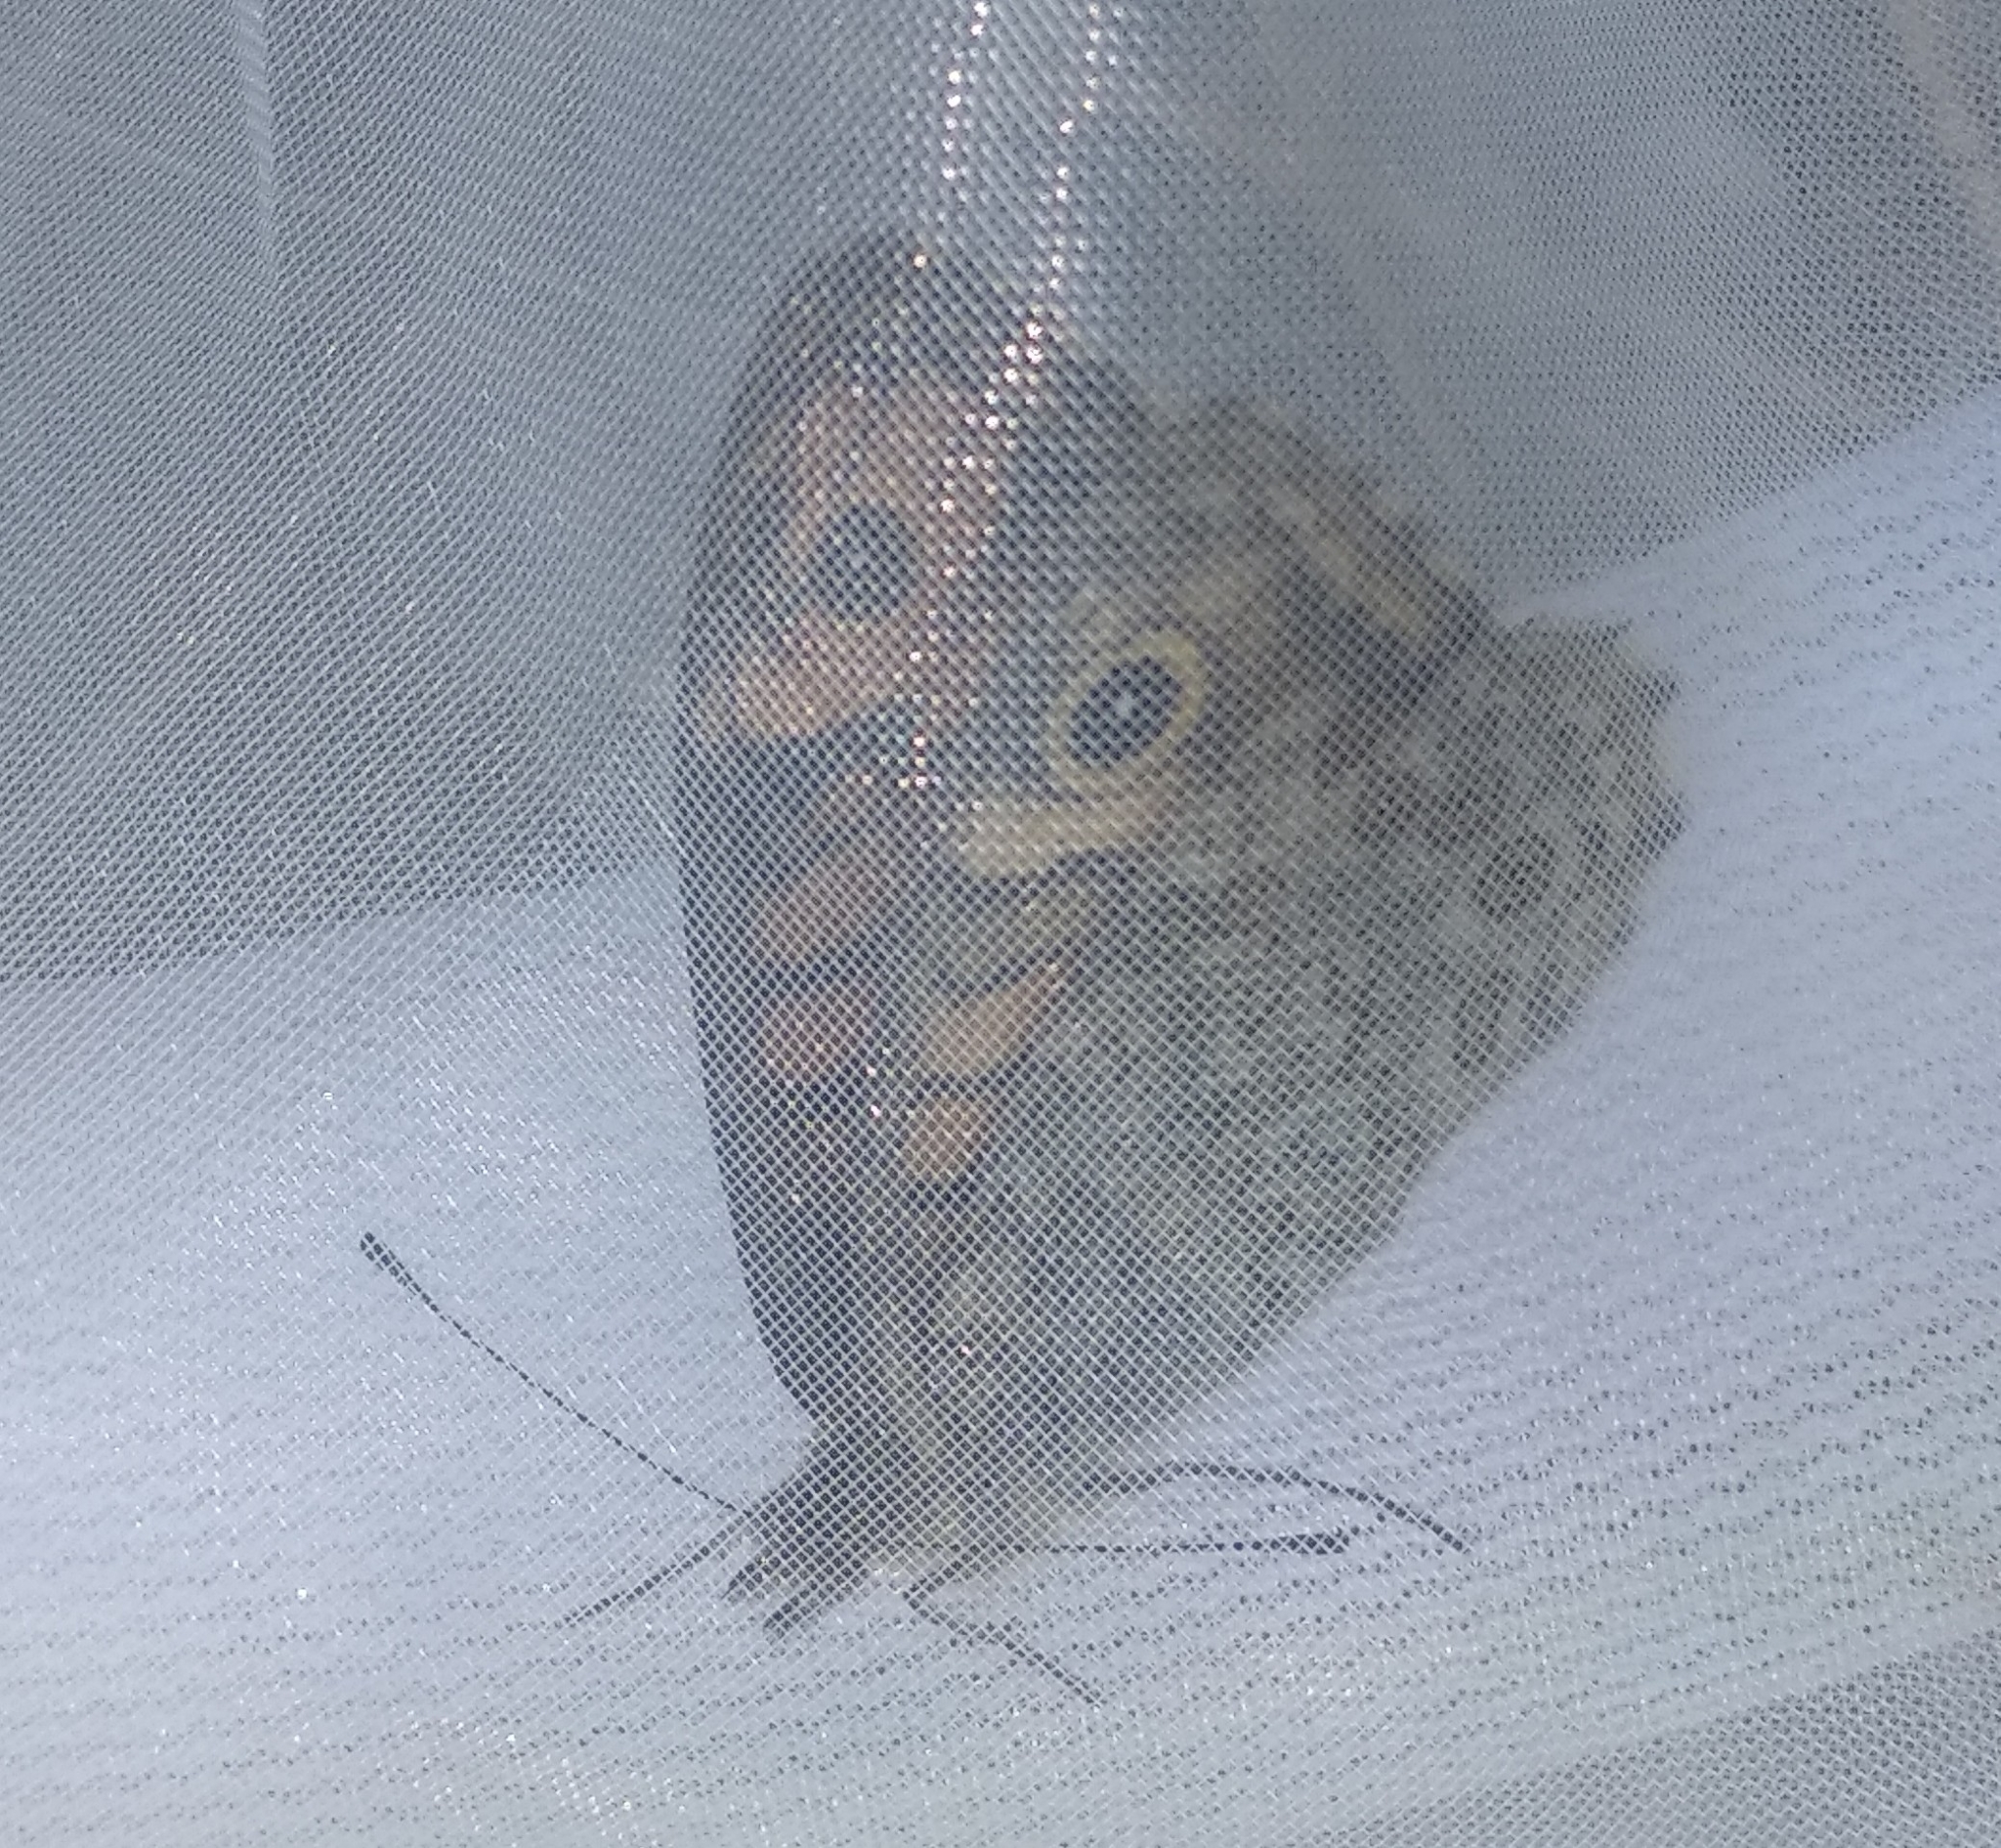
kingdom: Animalia
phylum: Arthropoda
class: Insecta
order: Lepidoptera
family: Nymphalidae
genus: Pararge
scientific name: Pararge Lasiommata megera
